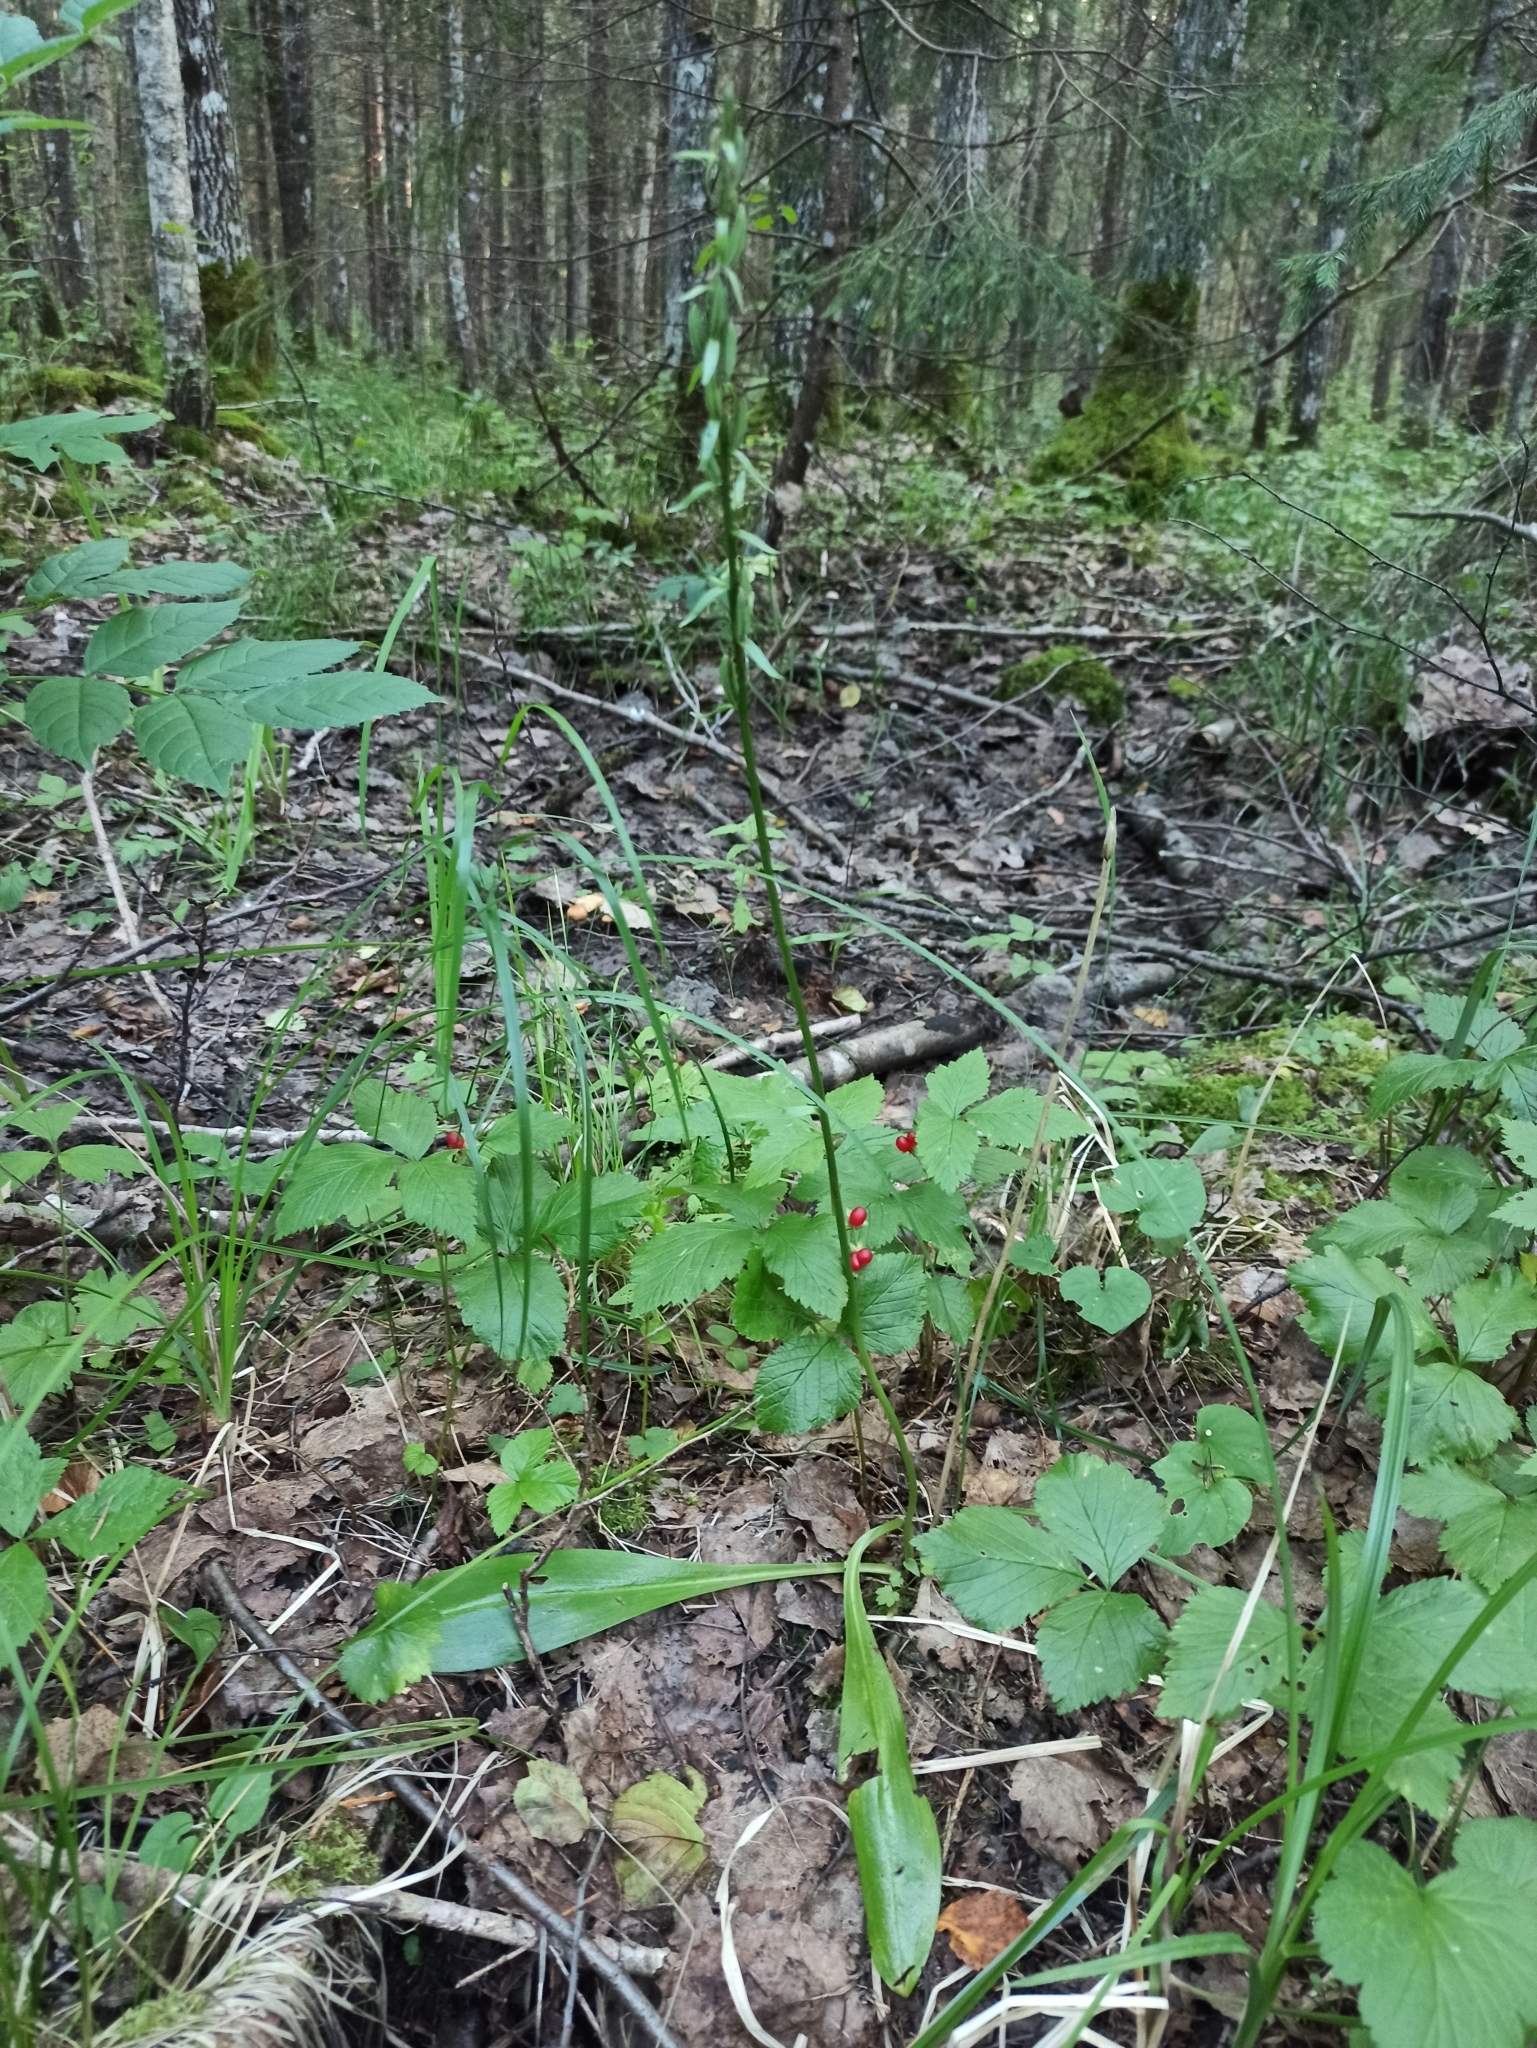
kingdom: Plantae
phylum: Tracheophyta
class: Liliopsida
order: Asparagales
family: Orchidaceae
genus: Platanthera
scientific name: Platanthera bifolia
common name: Lesser butterfly-orchid
